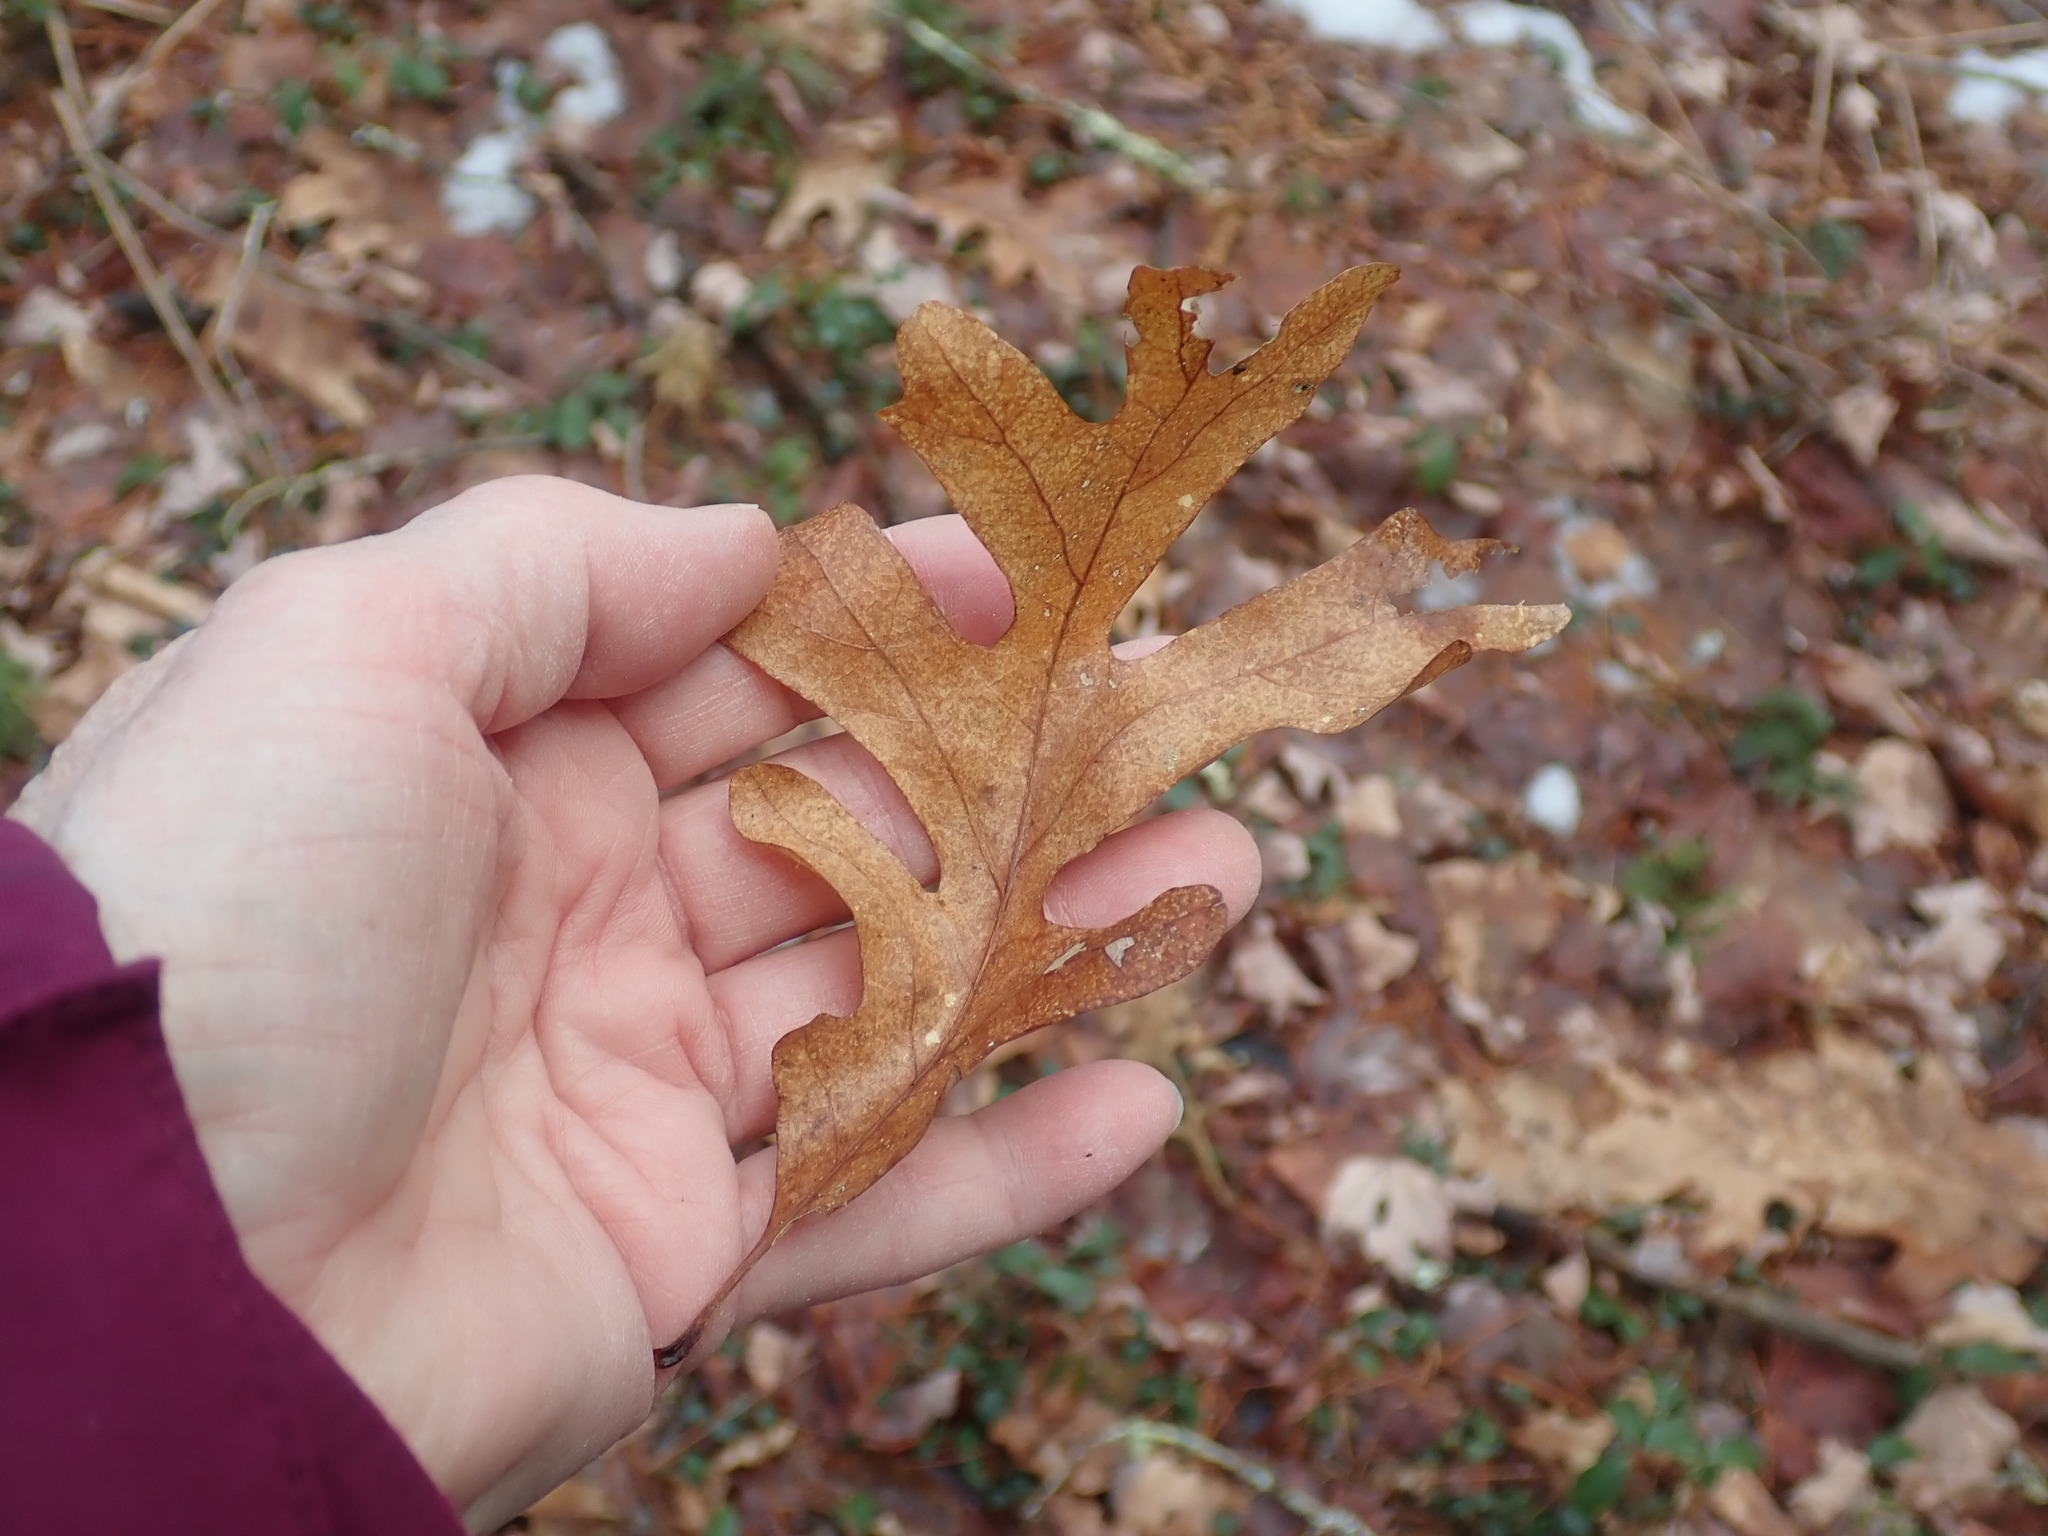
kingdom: Plantae
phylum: Tracheophyta
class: Magnoliopsida
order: Fagales
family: Fagaceae
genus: Quercus
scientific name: Quercus alba
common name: White oak
